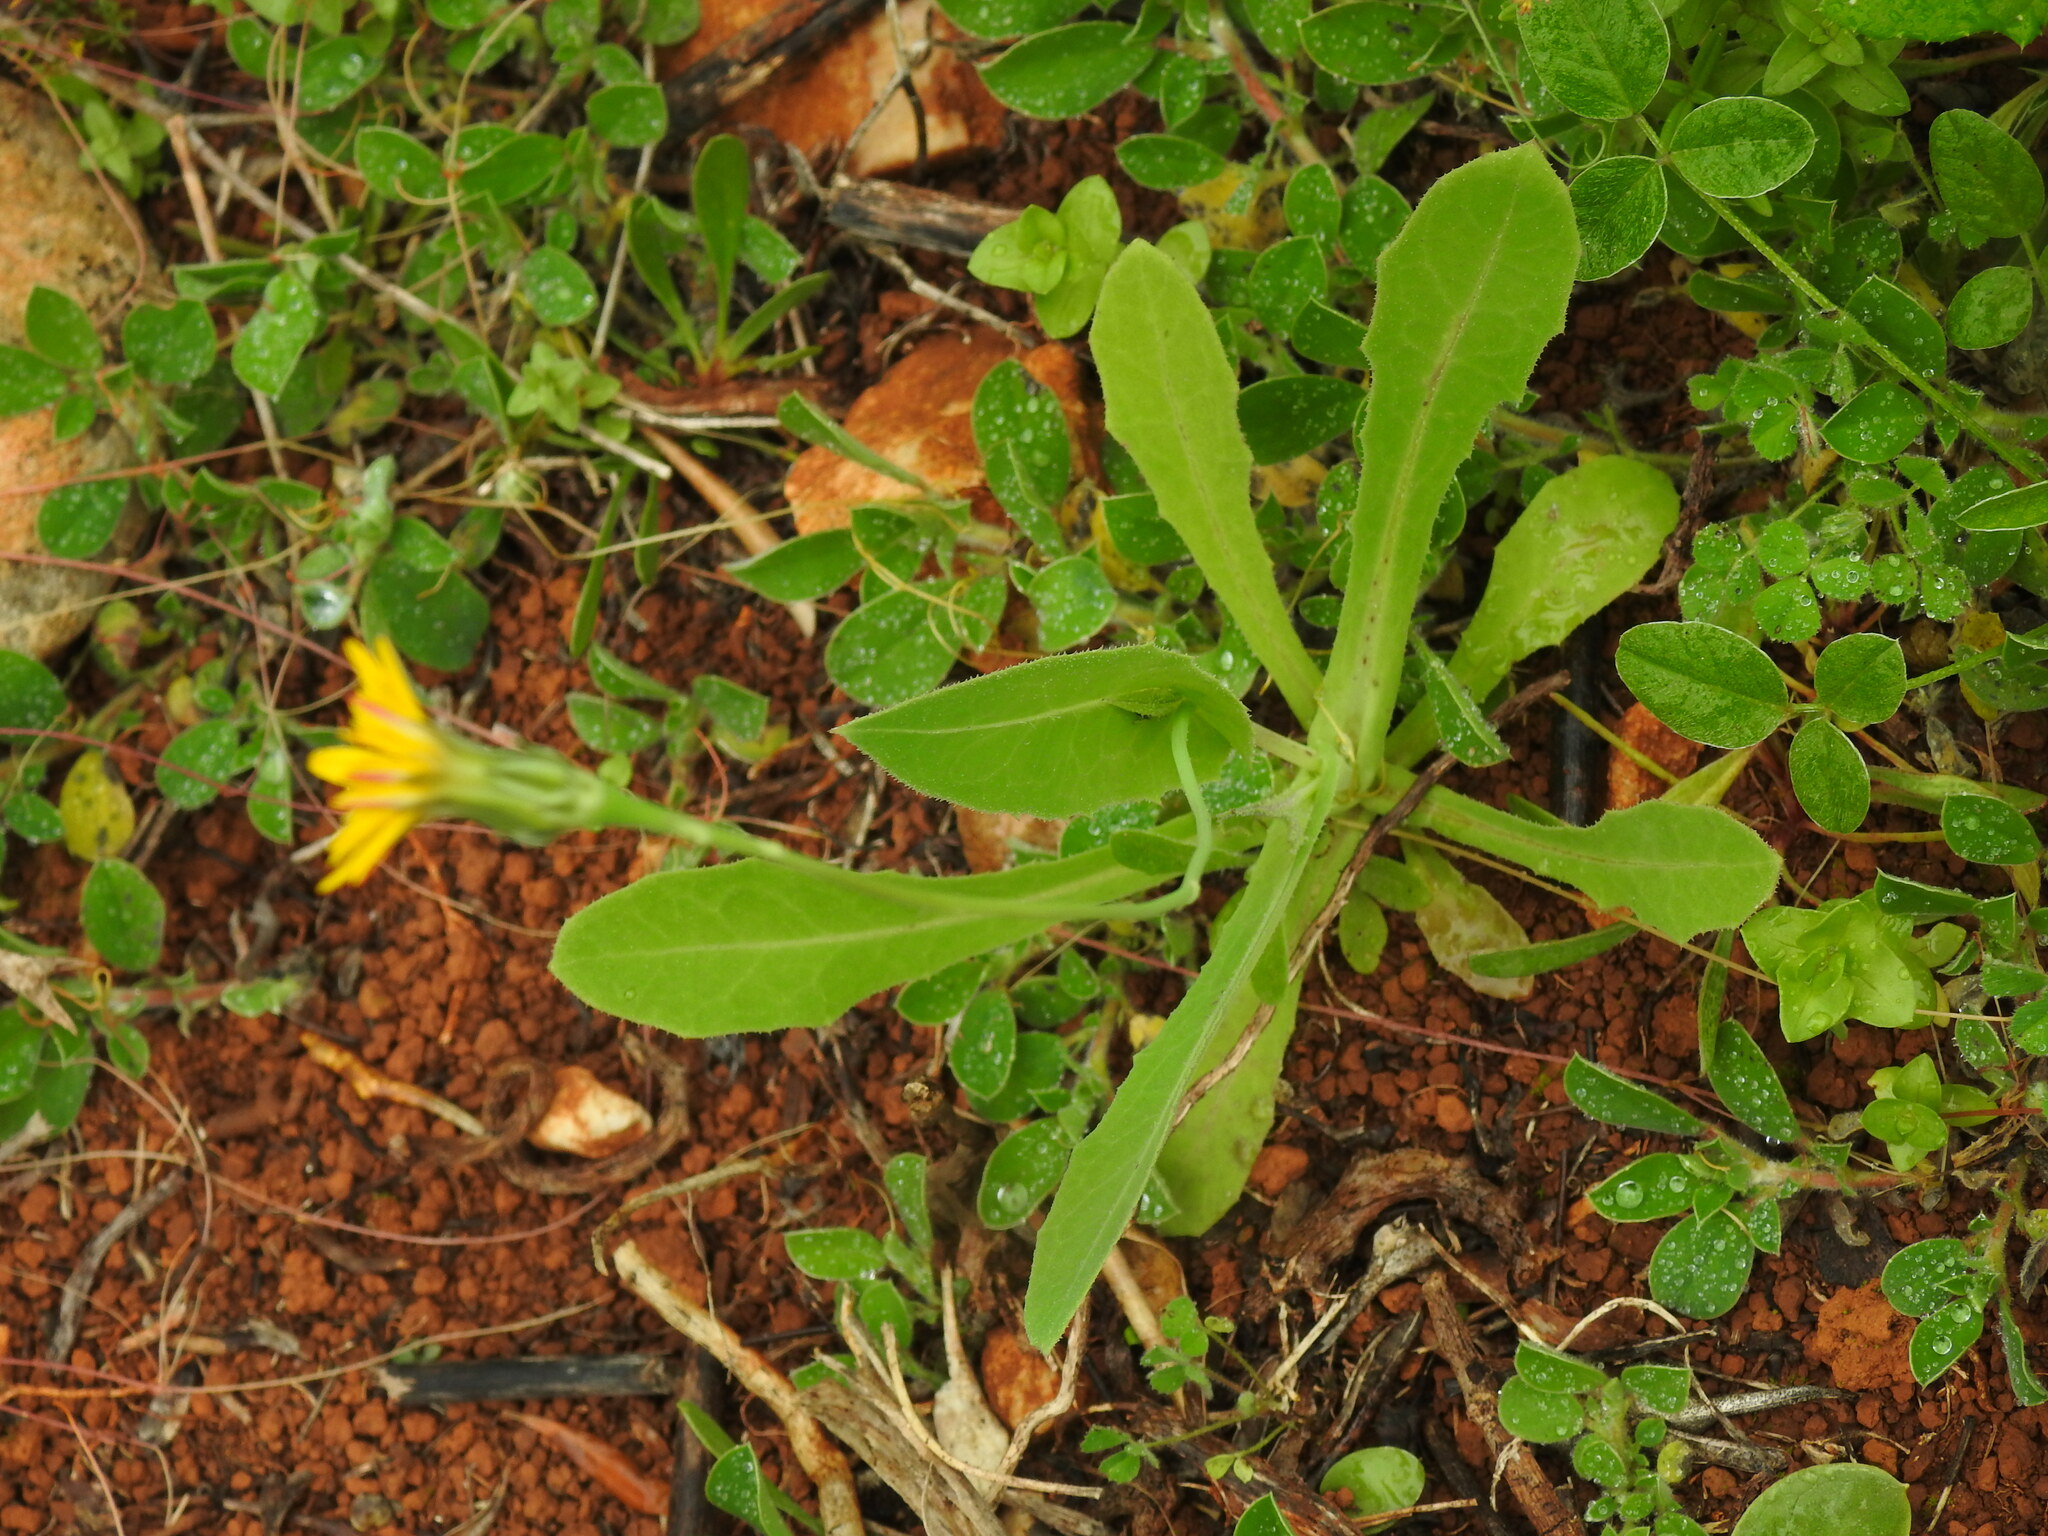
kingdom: Plantae
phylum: Tracheophyta
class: Magnoliopsida
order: Asterales
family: Asteraceae
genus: Reichardia
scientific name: Reichardia intermedia
